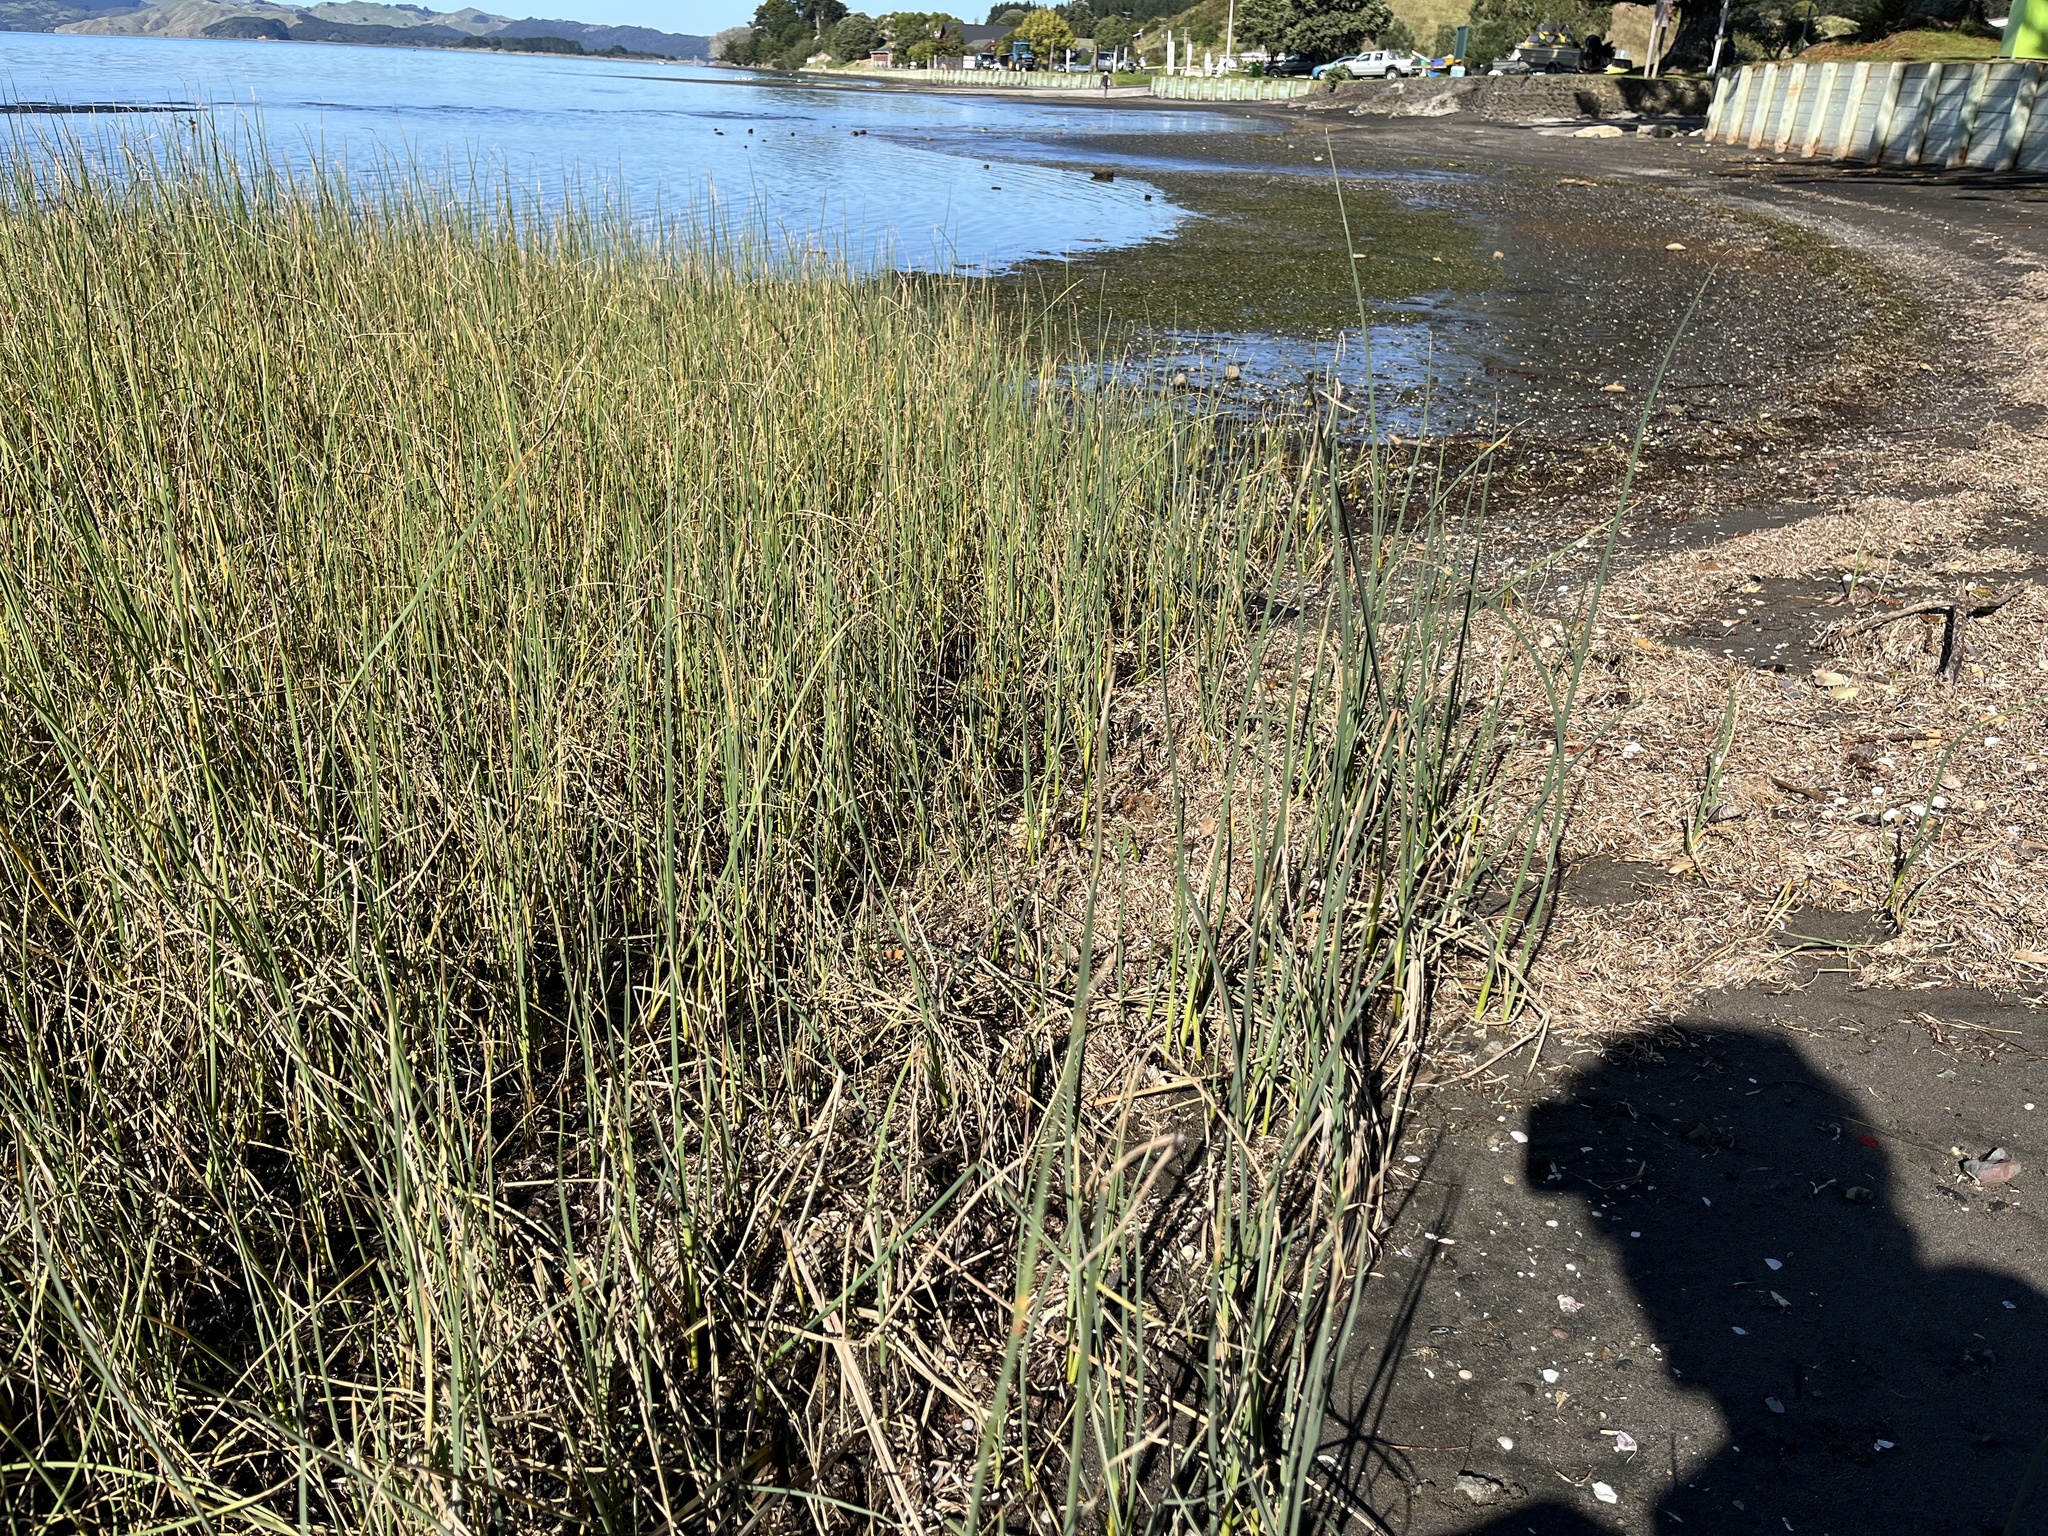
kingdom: Plantae
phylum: Tracheophyta
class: Liliopsida
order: Poales
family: Cyperaceae
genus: Schoenoplectus
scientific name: Schoenoplectus pungens
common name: Sharp club-rush
